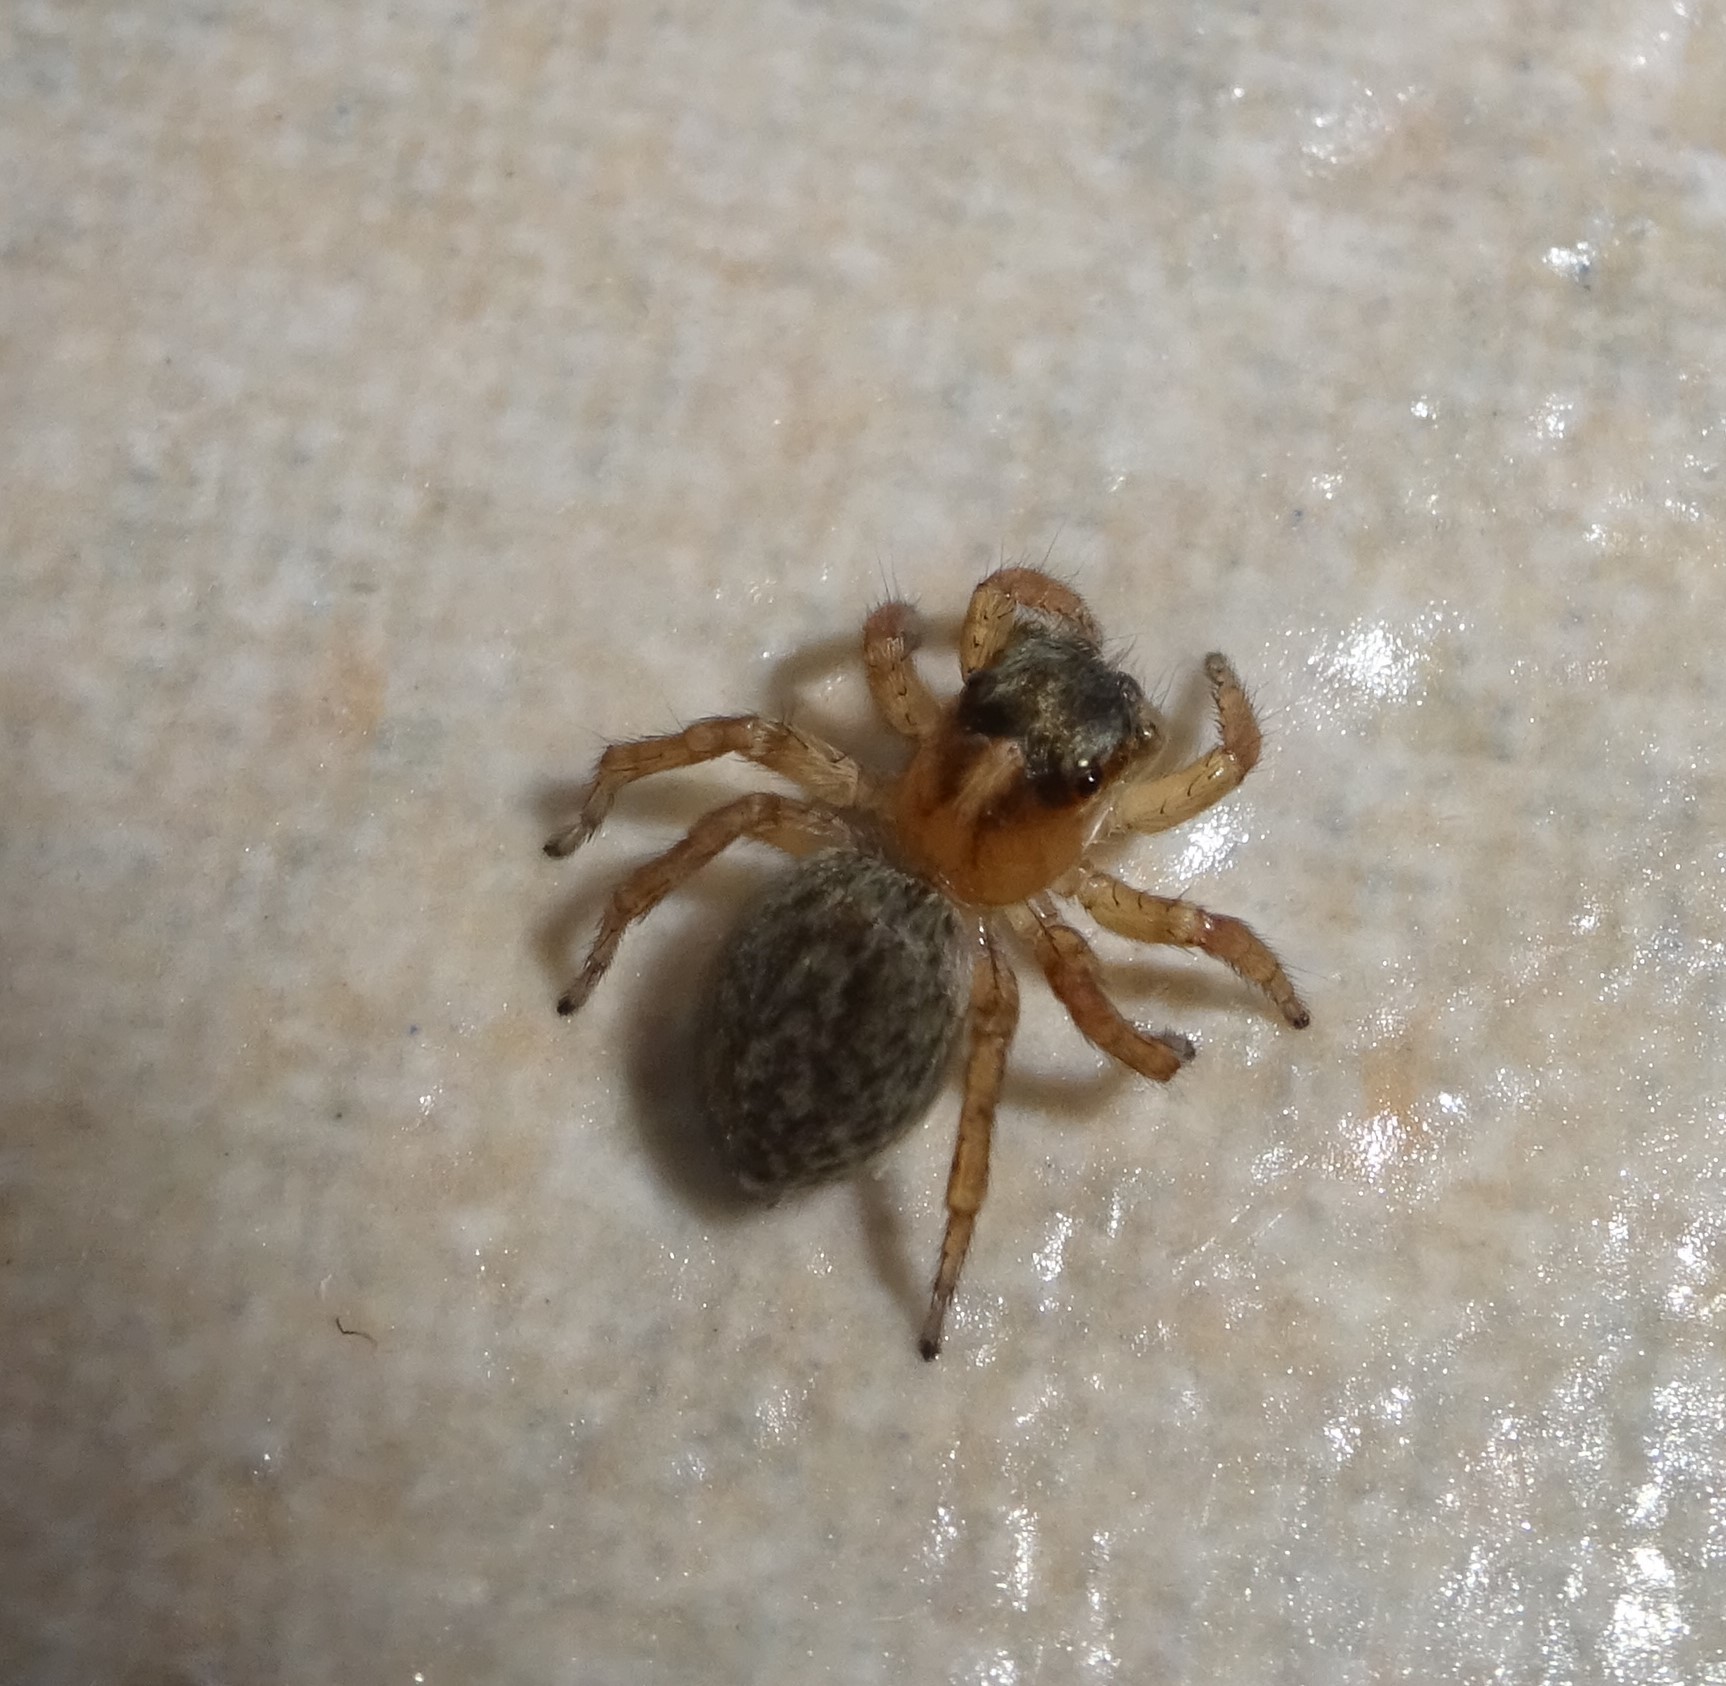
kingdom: Animalia
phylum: Arthropoda
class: Arachnida
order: Araneae
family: Salticidae
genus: Saitis
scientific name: Saitis barbipes
